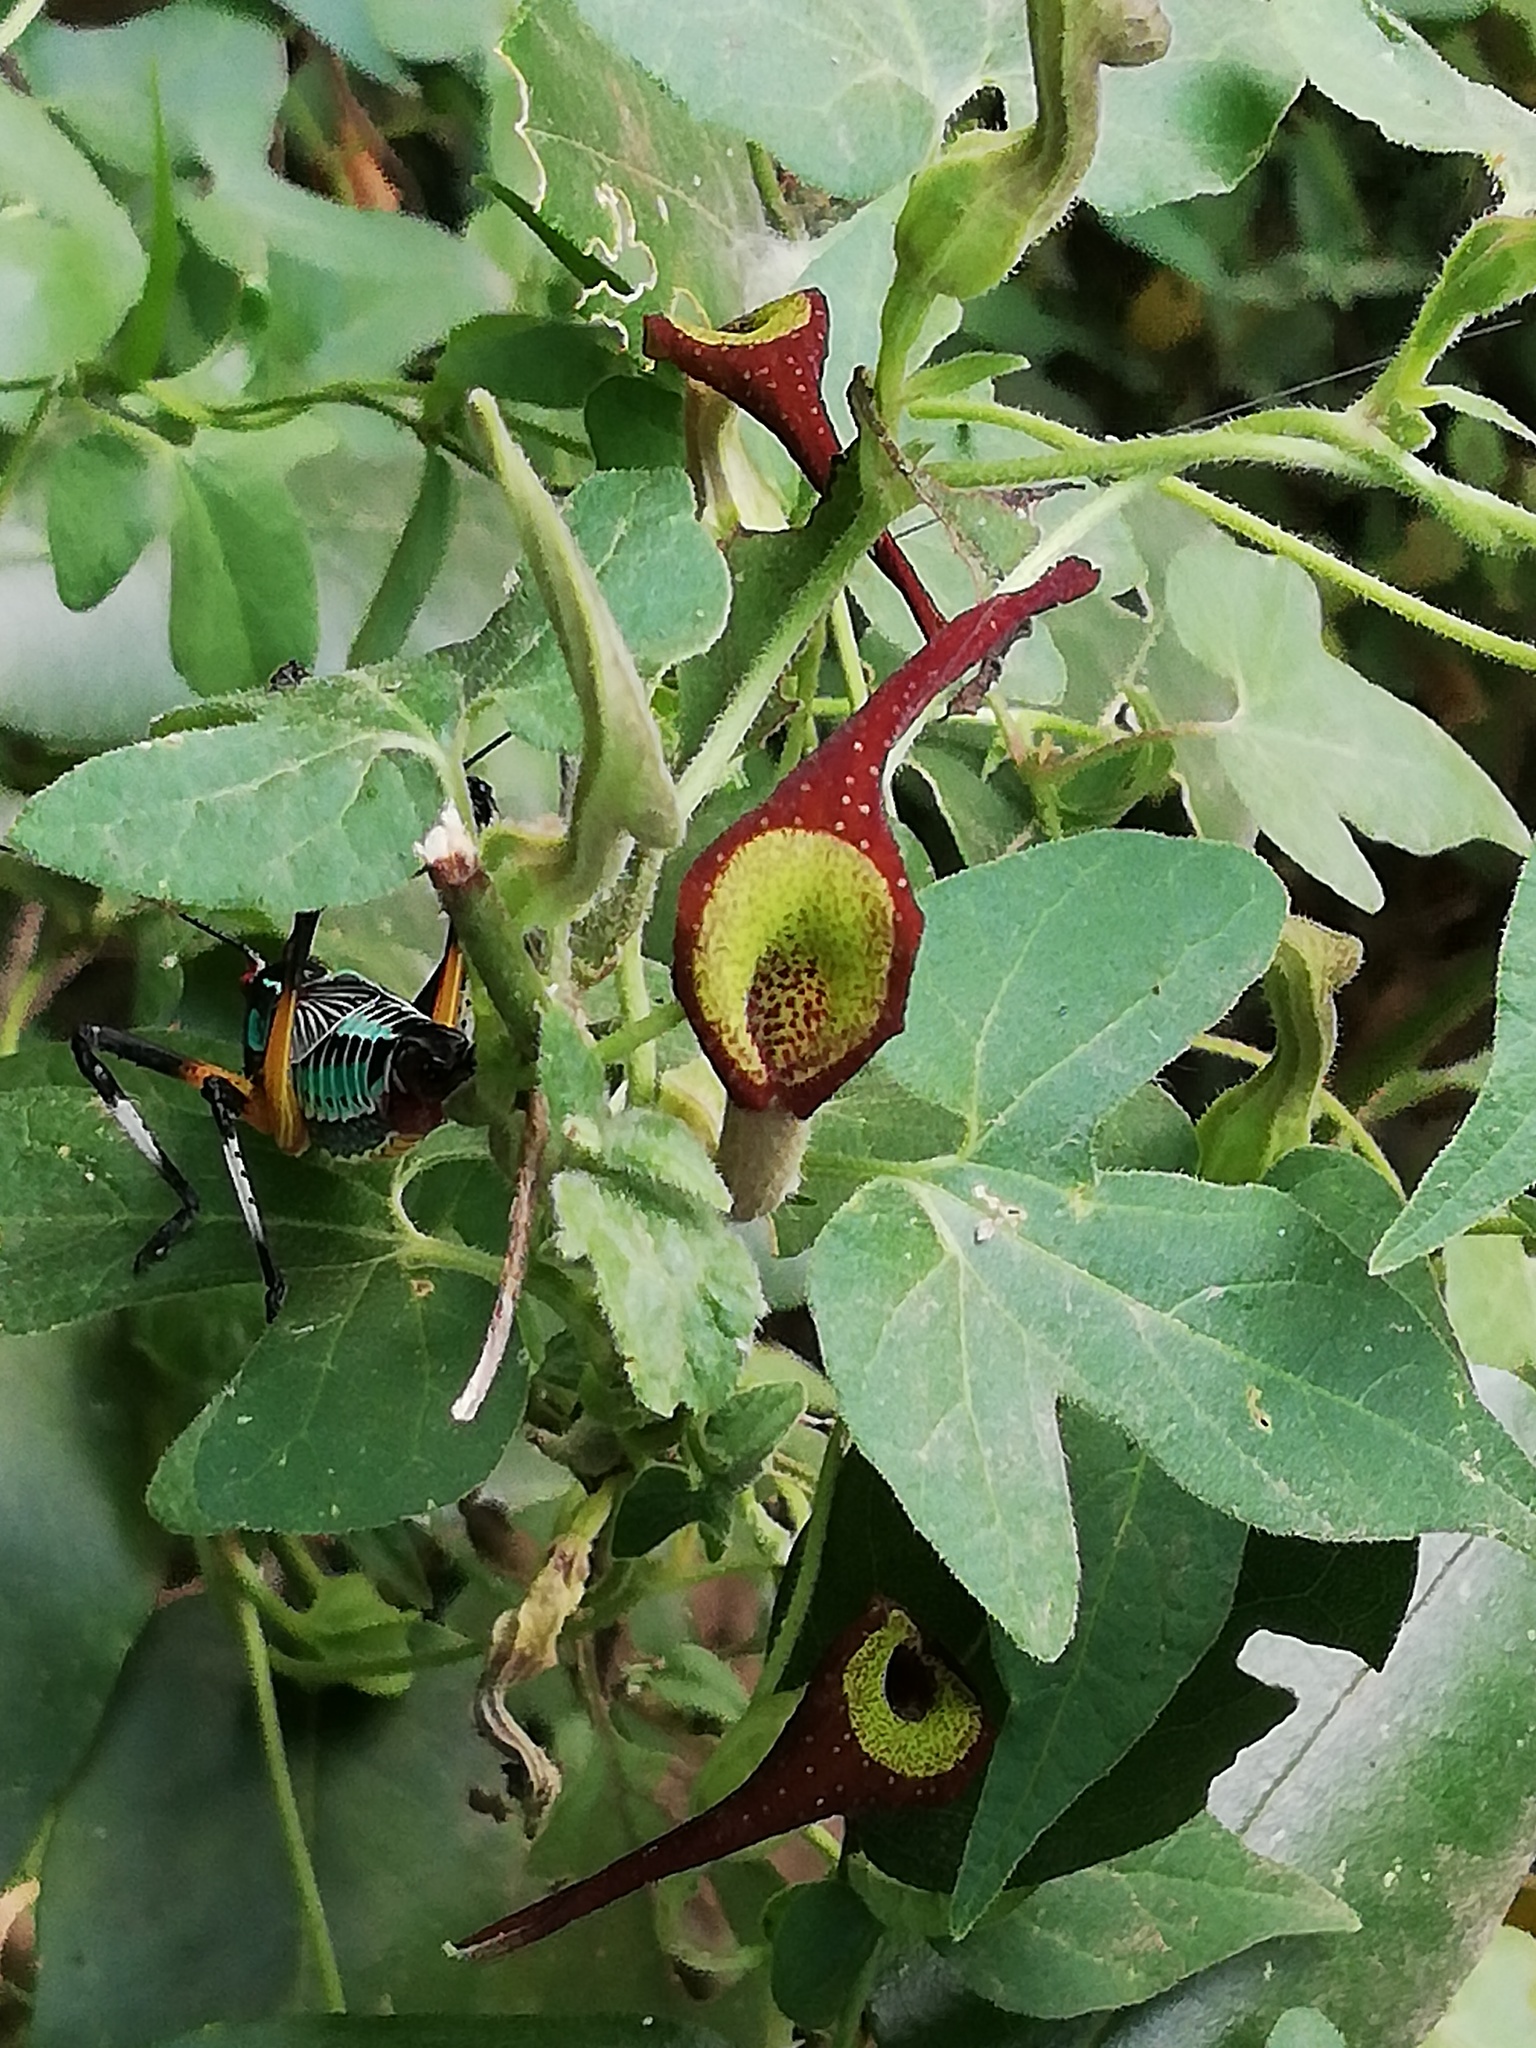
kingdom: Plantae
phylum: Tracheophyta
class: Magnoliopsida
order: Piperales
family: Aristolochiaceae
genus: Aristolochia
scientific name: Aristolochia pentandra
